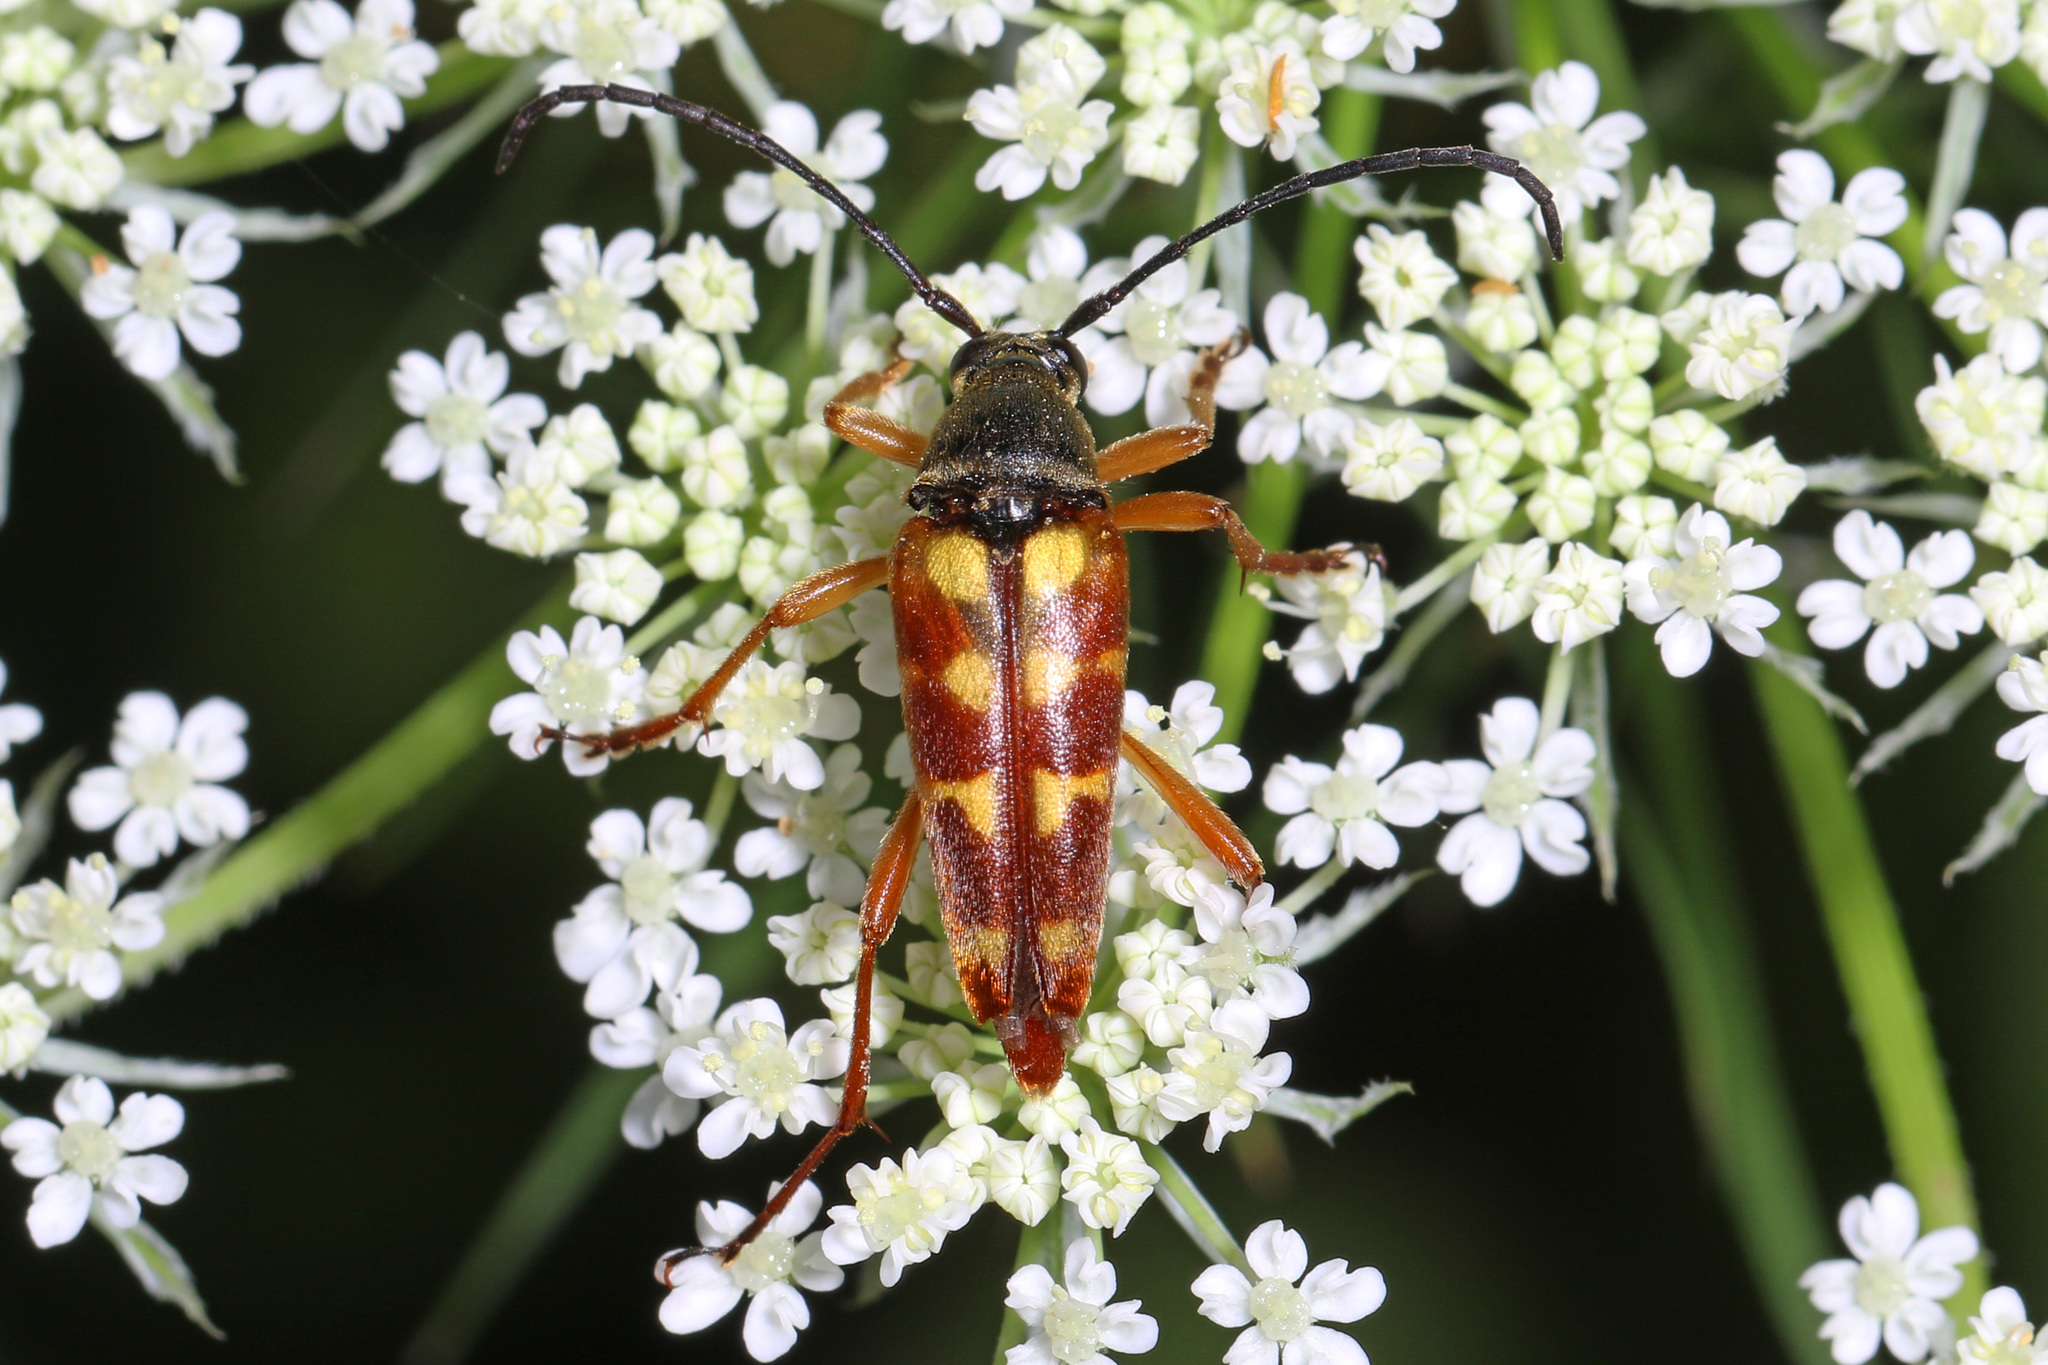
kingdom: Animalia
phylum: Arthropoda
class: Insecta
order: Coleoptera
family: Cerambycidae
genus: Typocerus
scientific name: Typocerus velutinus
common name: Banded longhorn beetle
